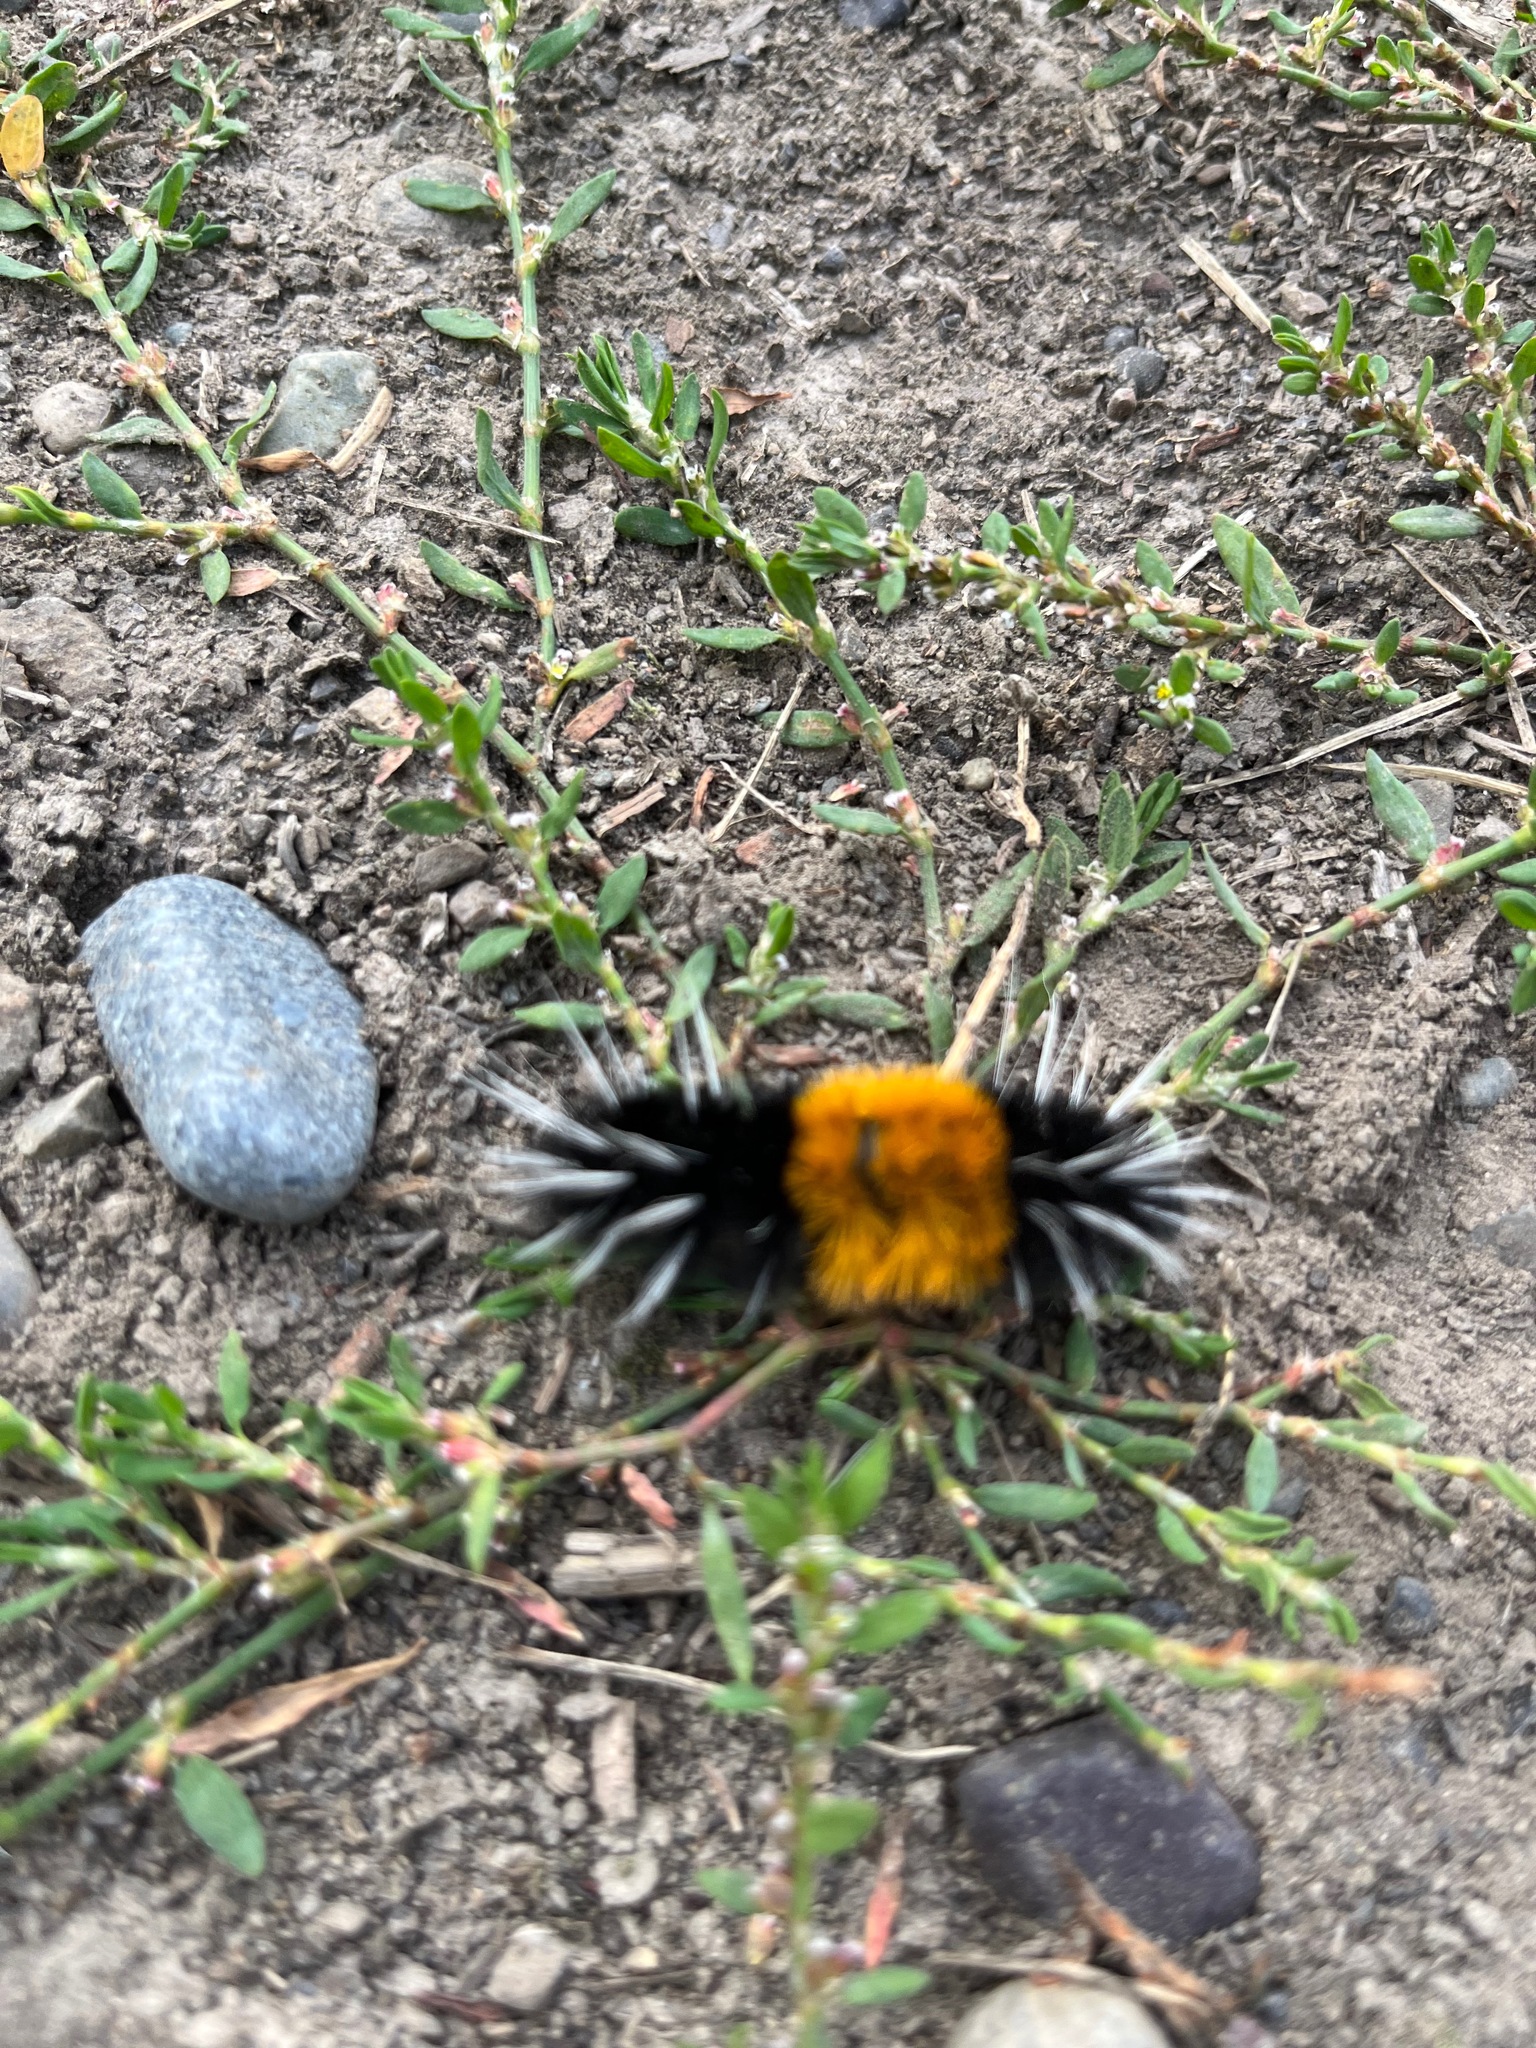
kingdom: Animalia
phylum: Arthropoda
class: Insecta
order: Lepidoptera
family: Erebidae
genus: Lophocampa
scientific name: Lophocampa maculata
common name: Spotted tussock moth
